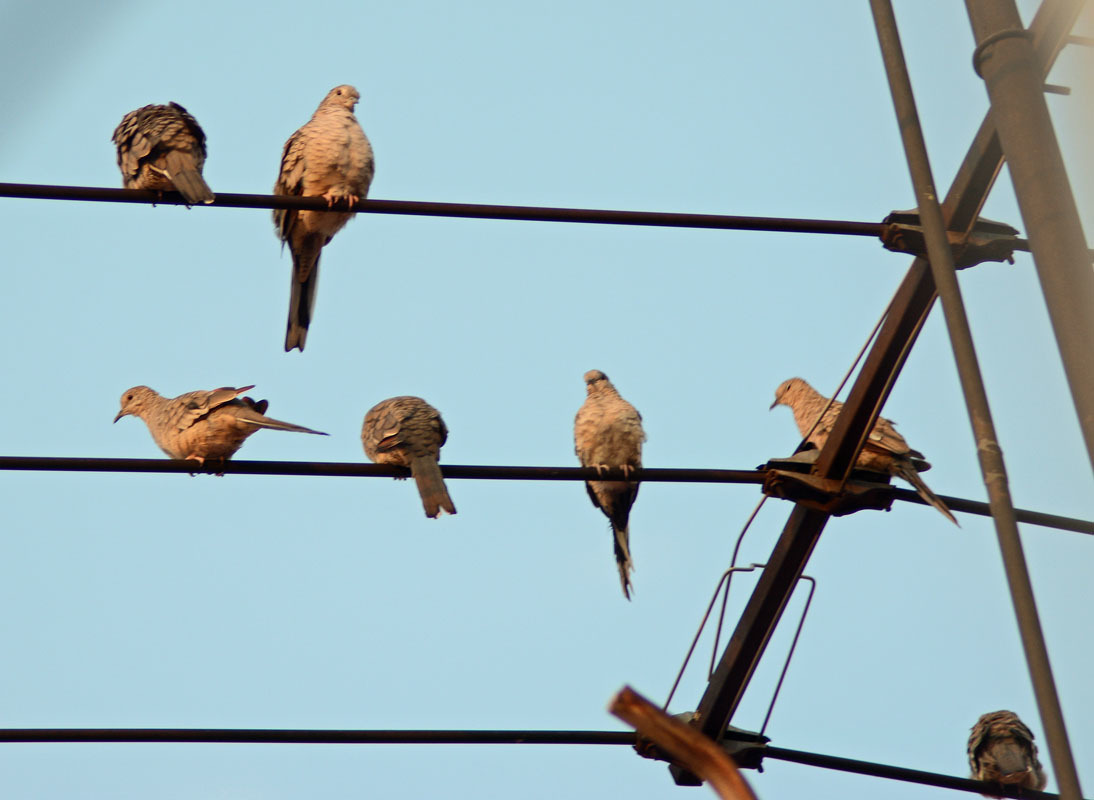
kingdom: Animalia
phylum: Chordata
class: Aves
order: Columbiformes
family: Columbidae
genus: Columbina
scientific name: Columbina inca
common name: Inca dove
